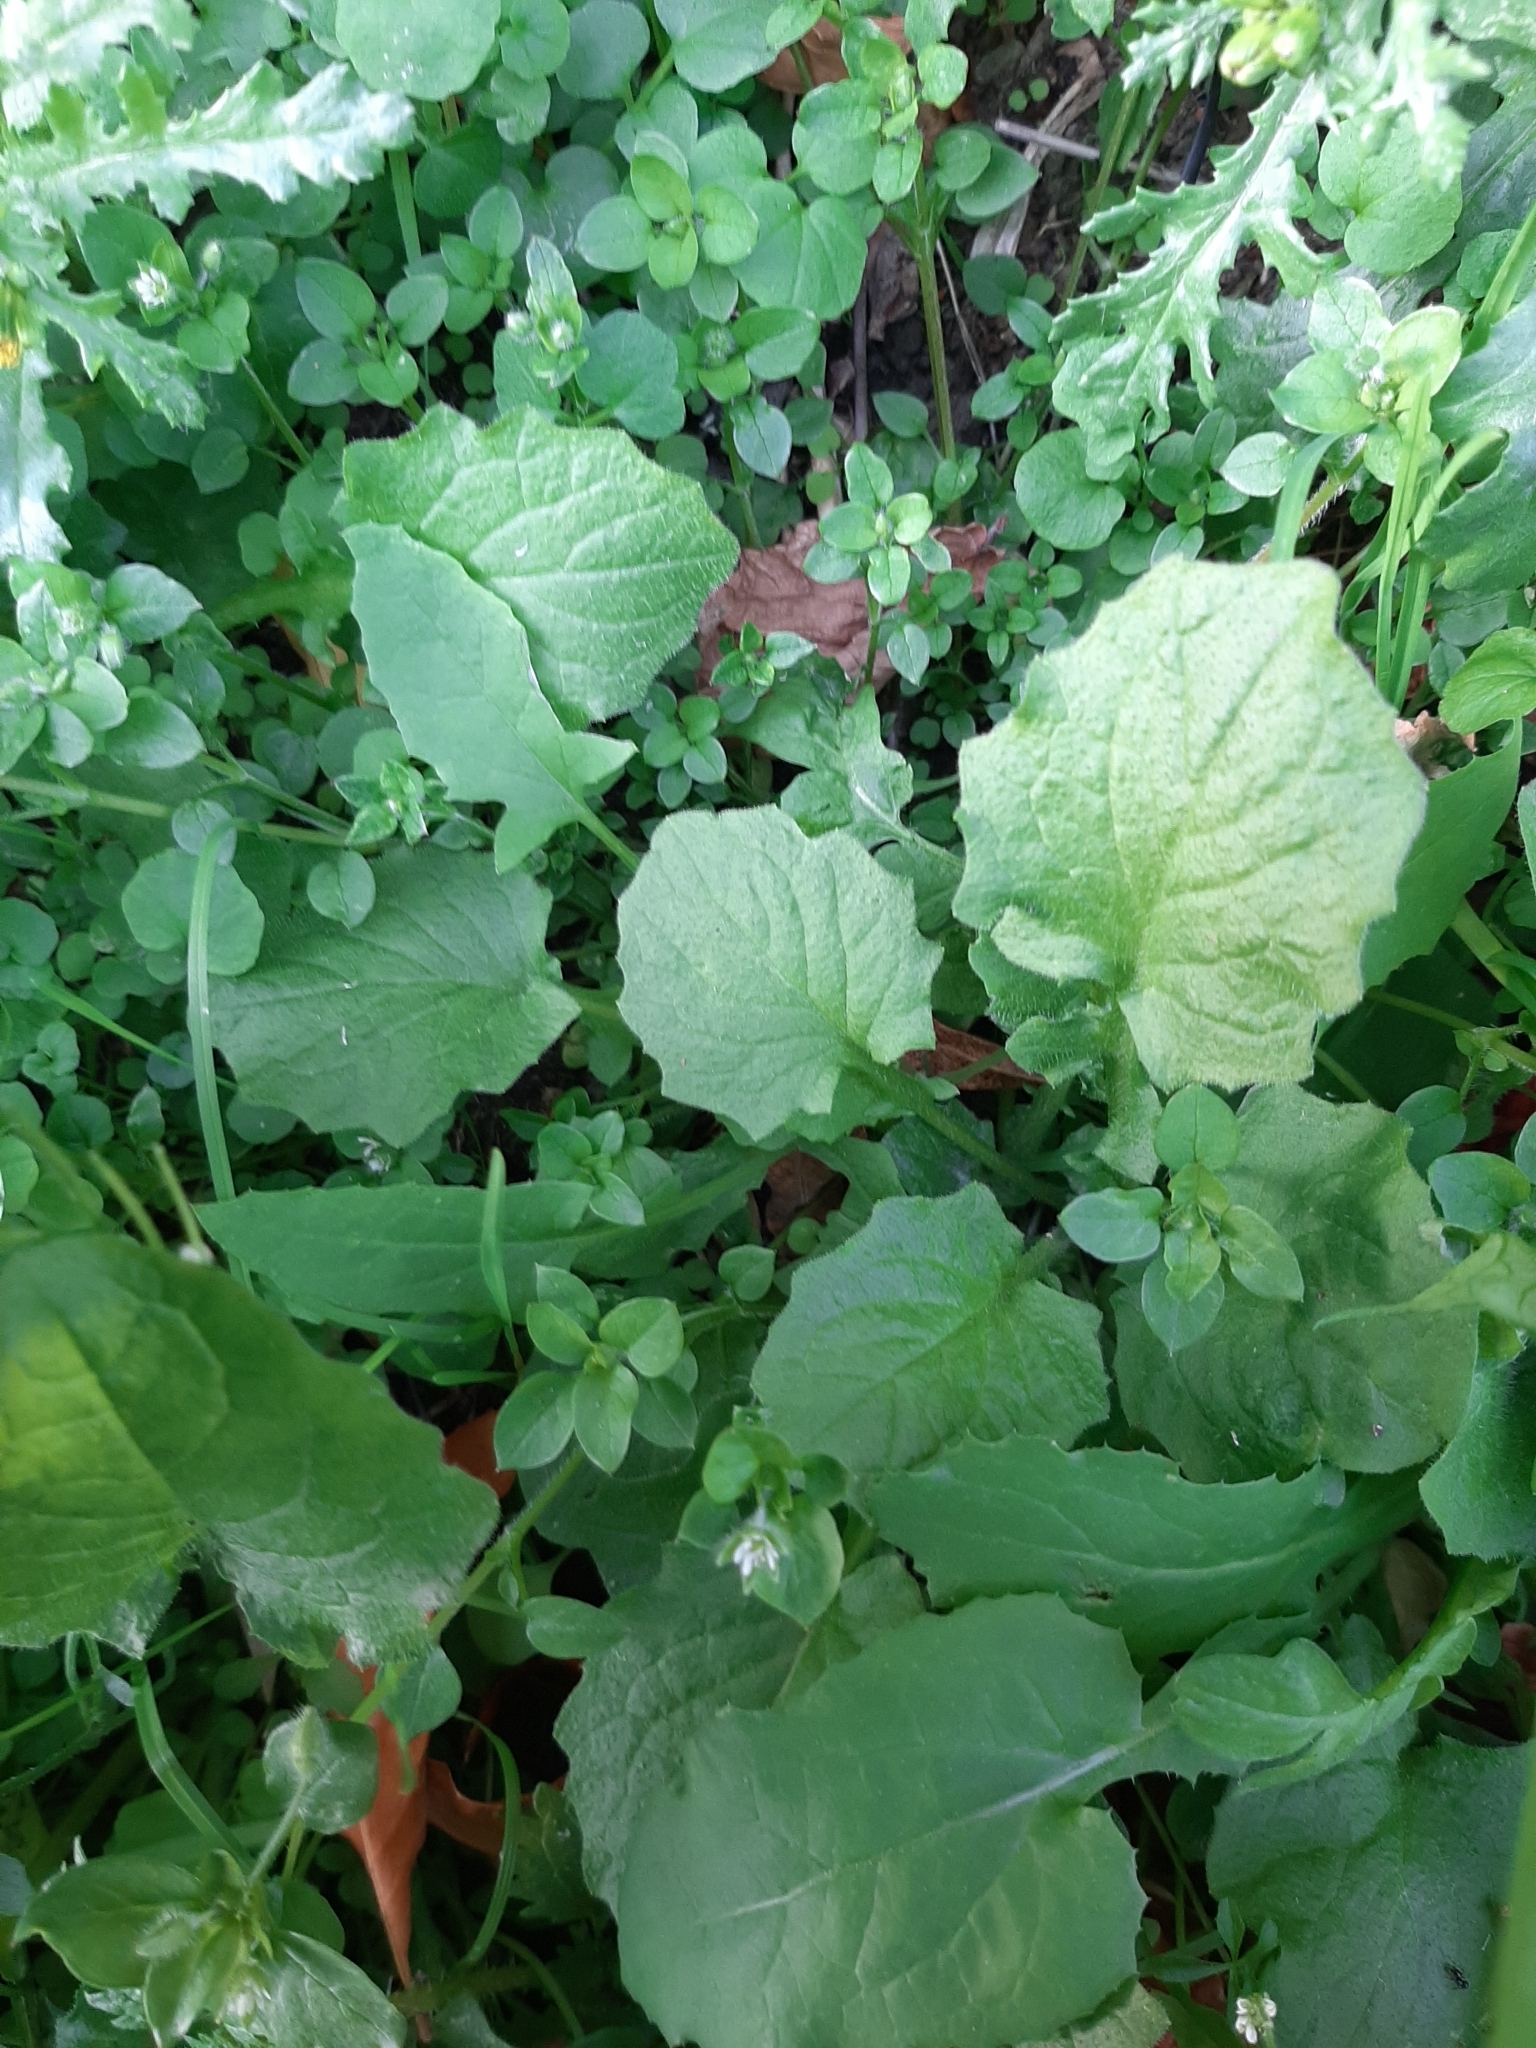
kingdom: Plantae
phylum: Tracheophyta
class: Magnoliopsida
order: Asterales
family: Asteraceae
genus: Lapsana
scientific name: Lapsana communis
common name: Nipplewort
